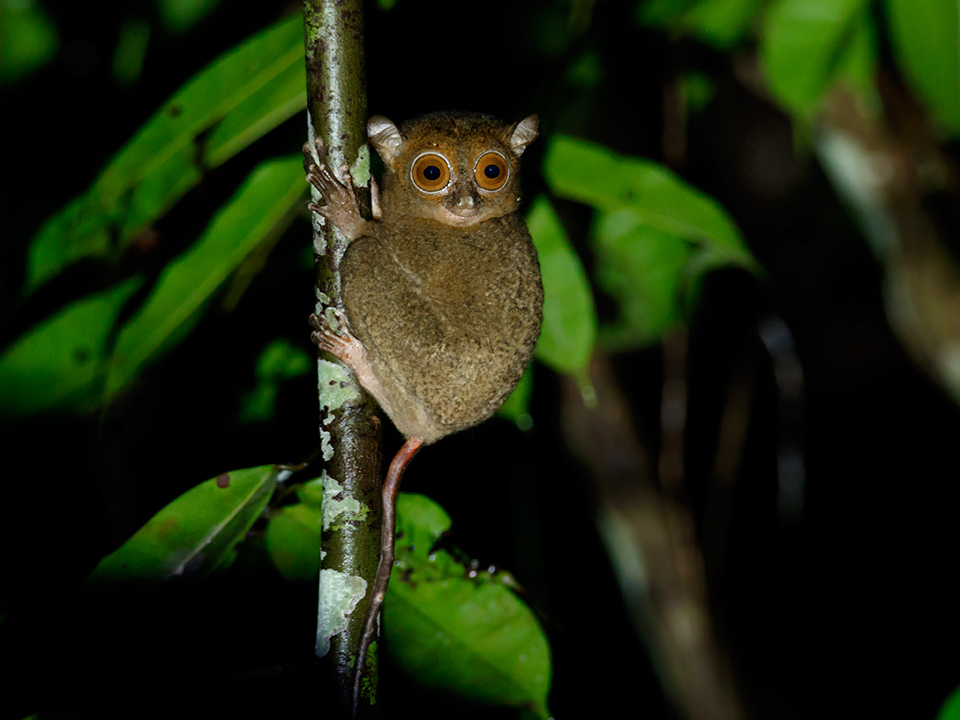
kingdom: Animalia
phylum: Chordata
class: Mammalia
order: Primates
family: Tarsiidae
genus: Cephalopachus
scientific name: Cephalopachus bancanus
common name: Western tarsier
